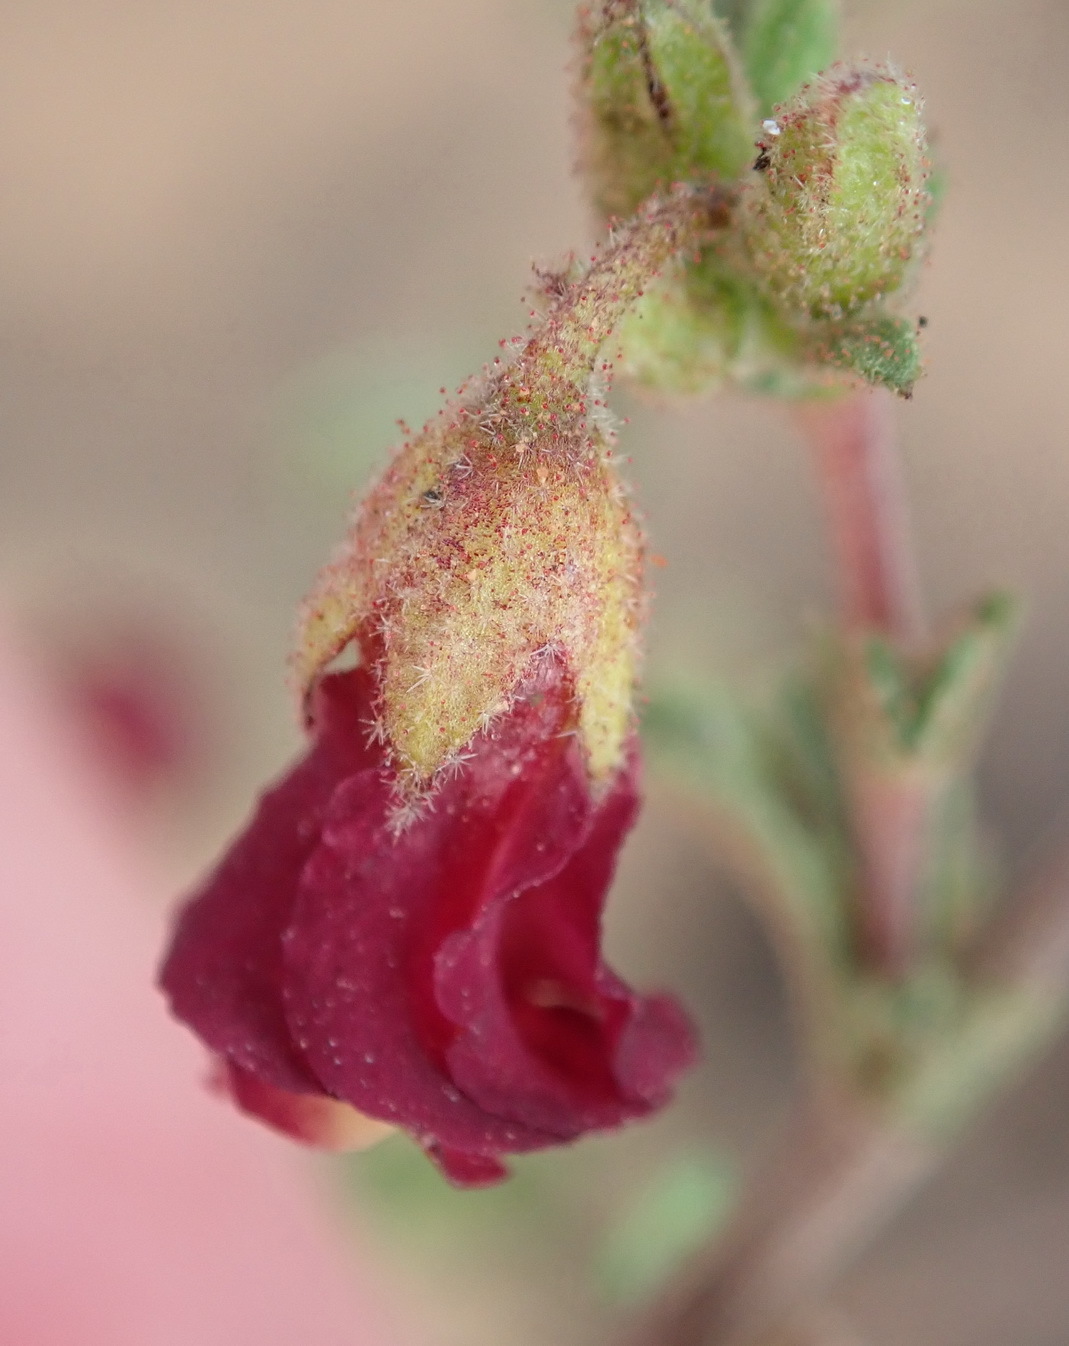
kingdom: Plantae
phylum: Tracheophyta
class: Magnoliopsida
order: Malvales
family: Malvaceae
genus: Hermannia
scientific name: Hermannia flammula
